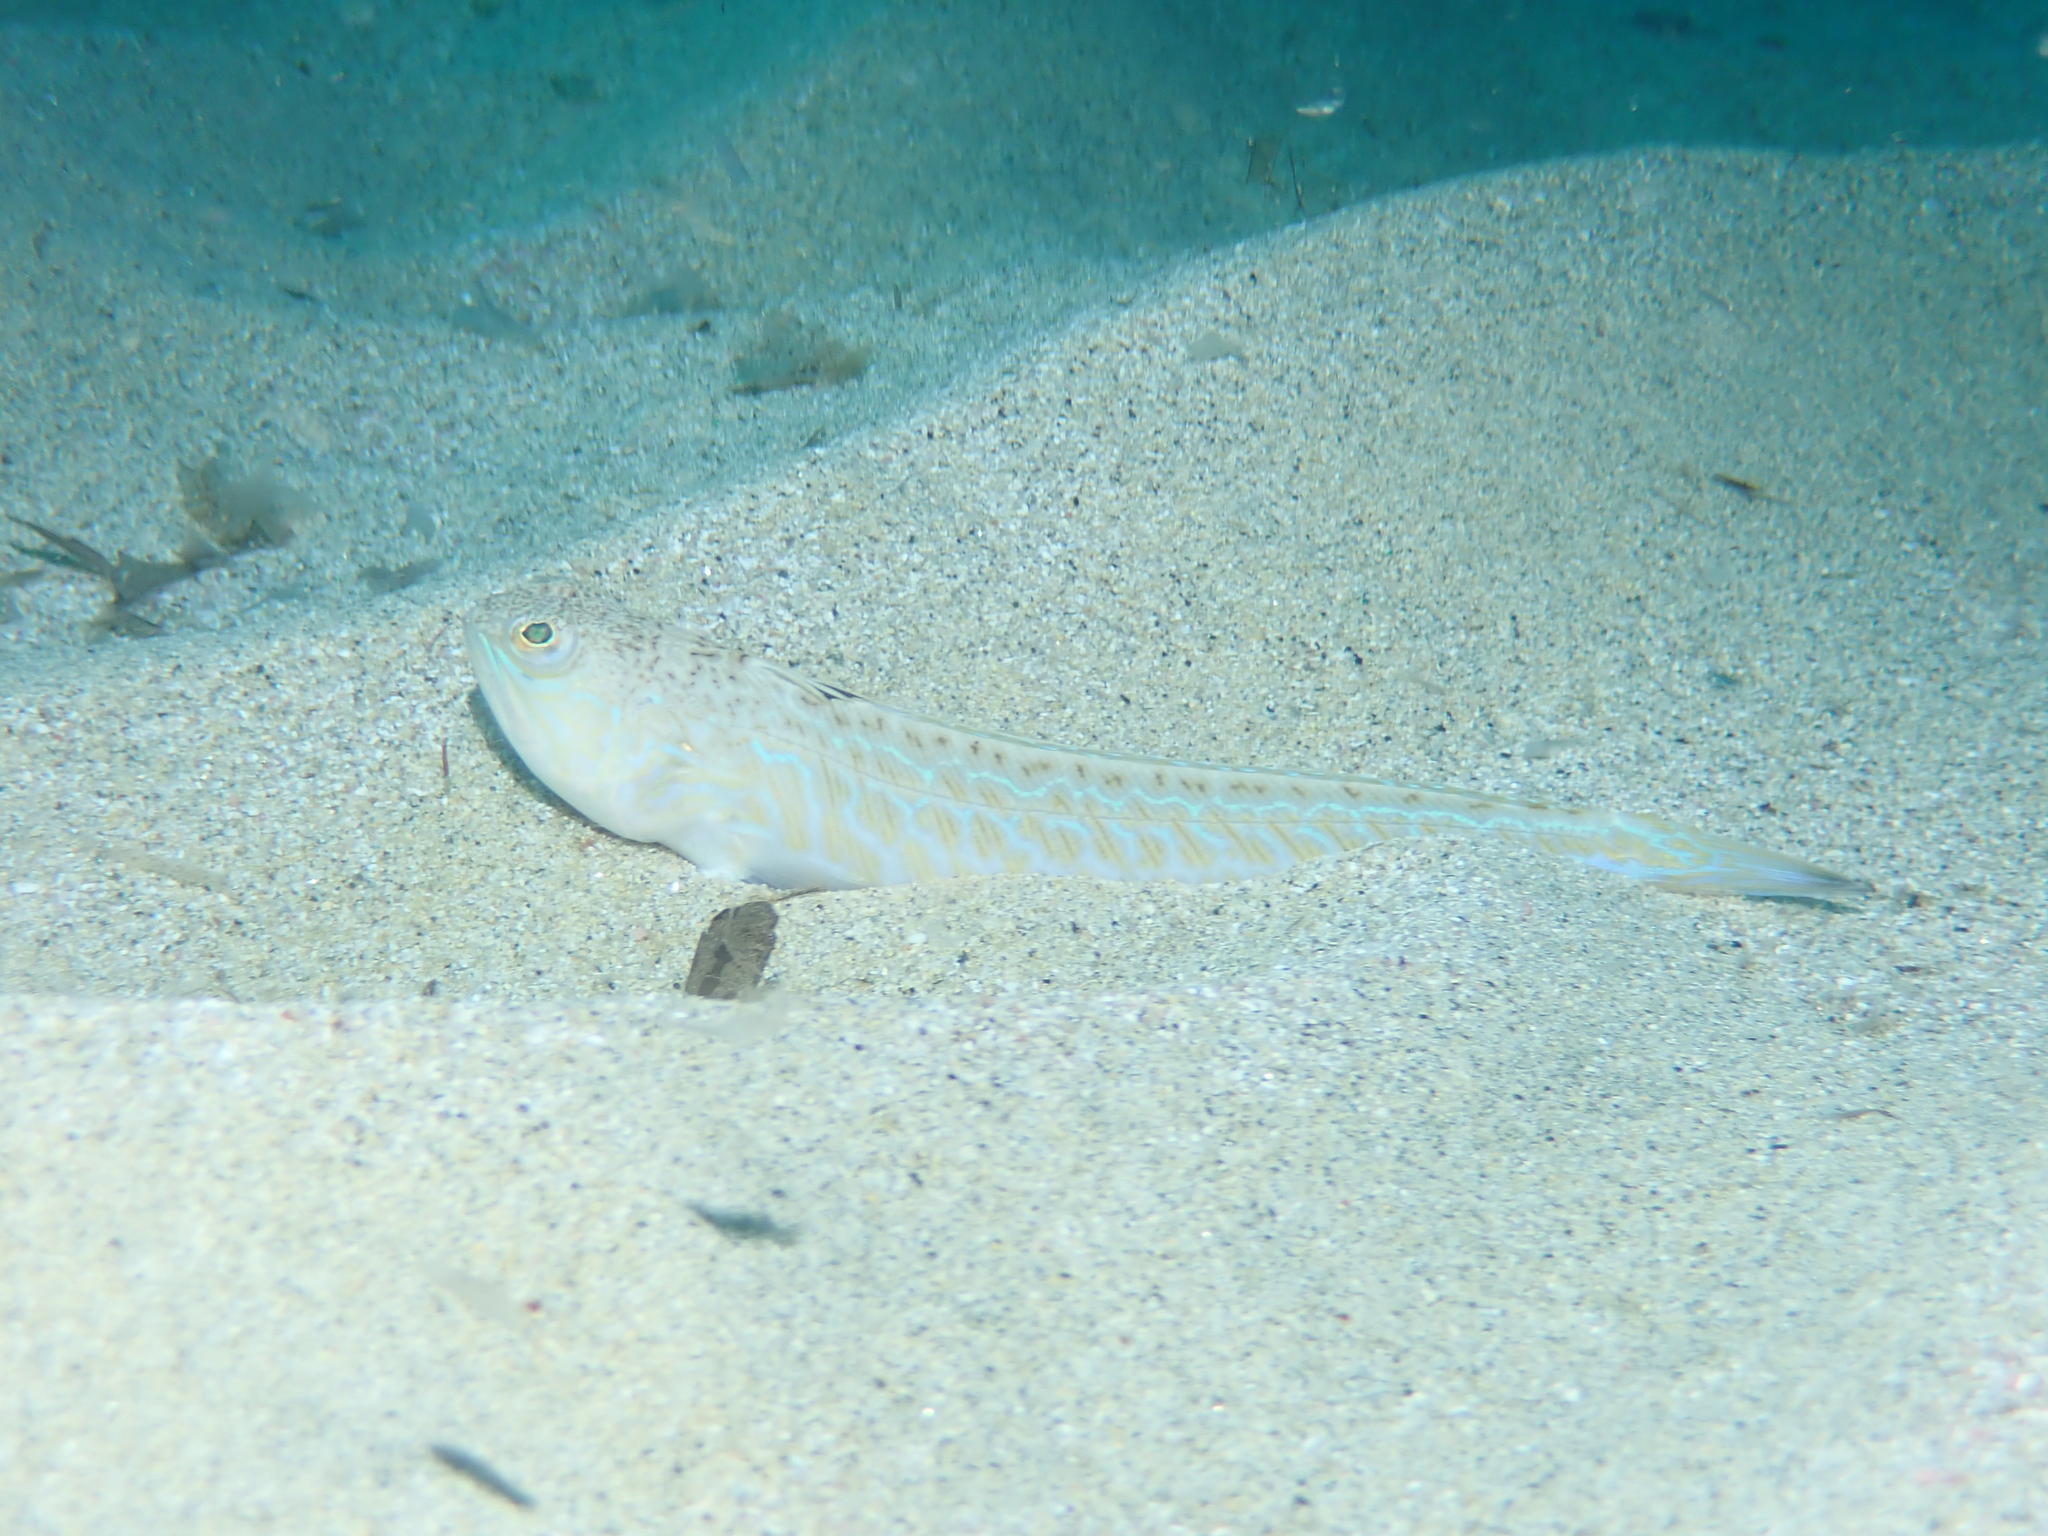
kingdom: Animalia
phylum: Chordata
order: Perciformes
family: Trachinidae
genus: Trachinus
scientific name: Trachinus draco
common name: Greater weever
